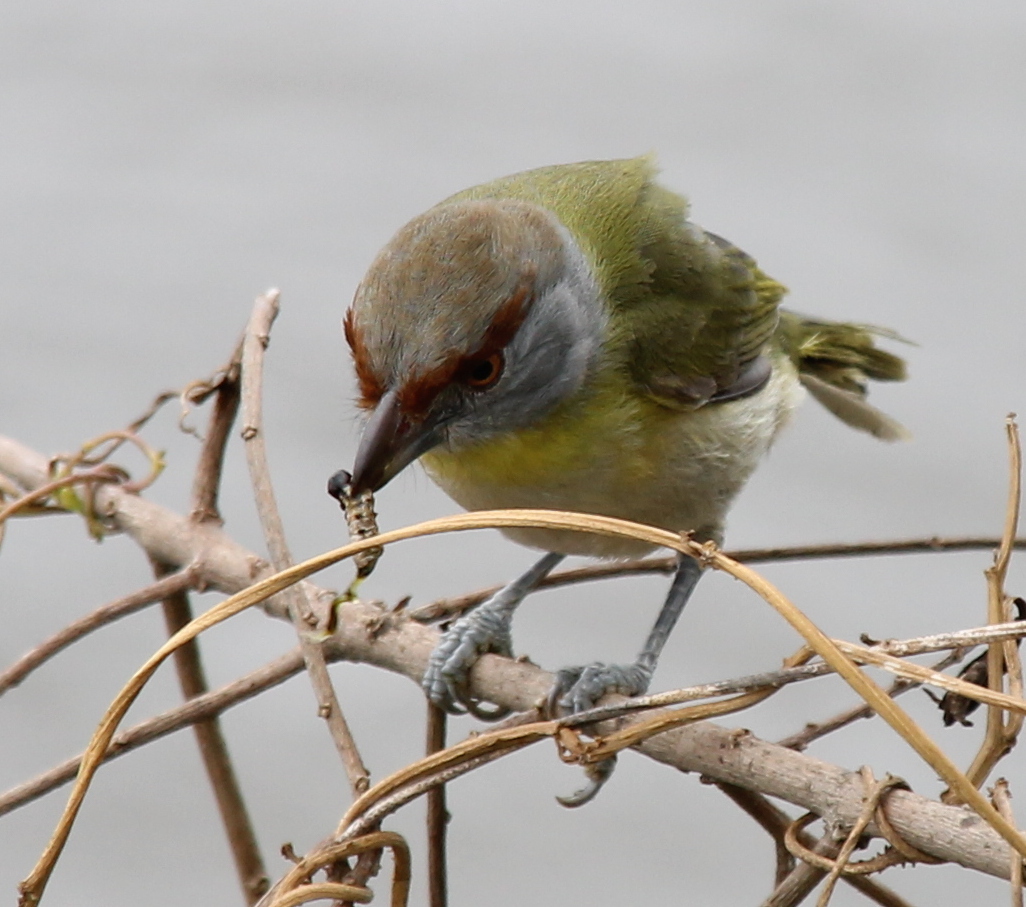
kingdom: Animalia
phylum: Chordata
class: Aves
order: Passeriformes
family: Vireonidae
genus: Cyclarhis
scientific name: Cyclarhis gujanensis
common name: Rufous-browed peppershrike
